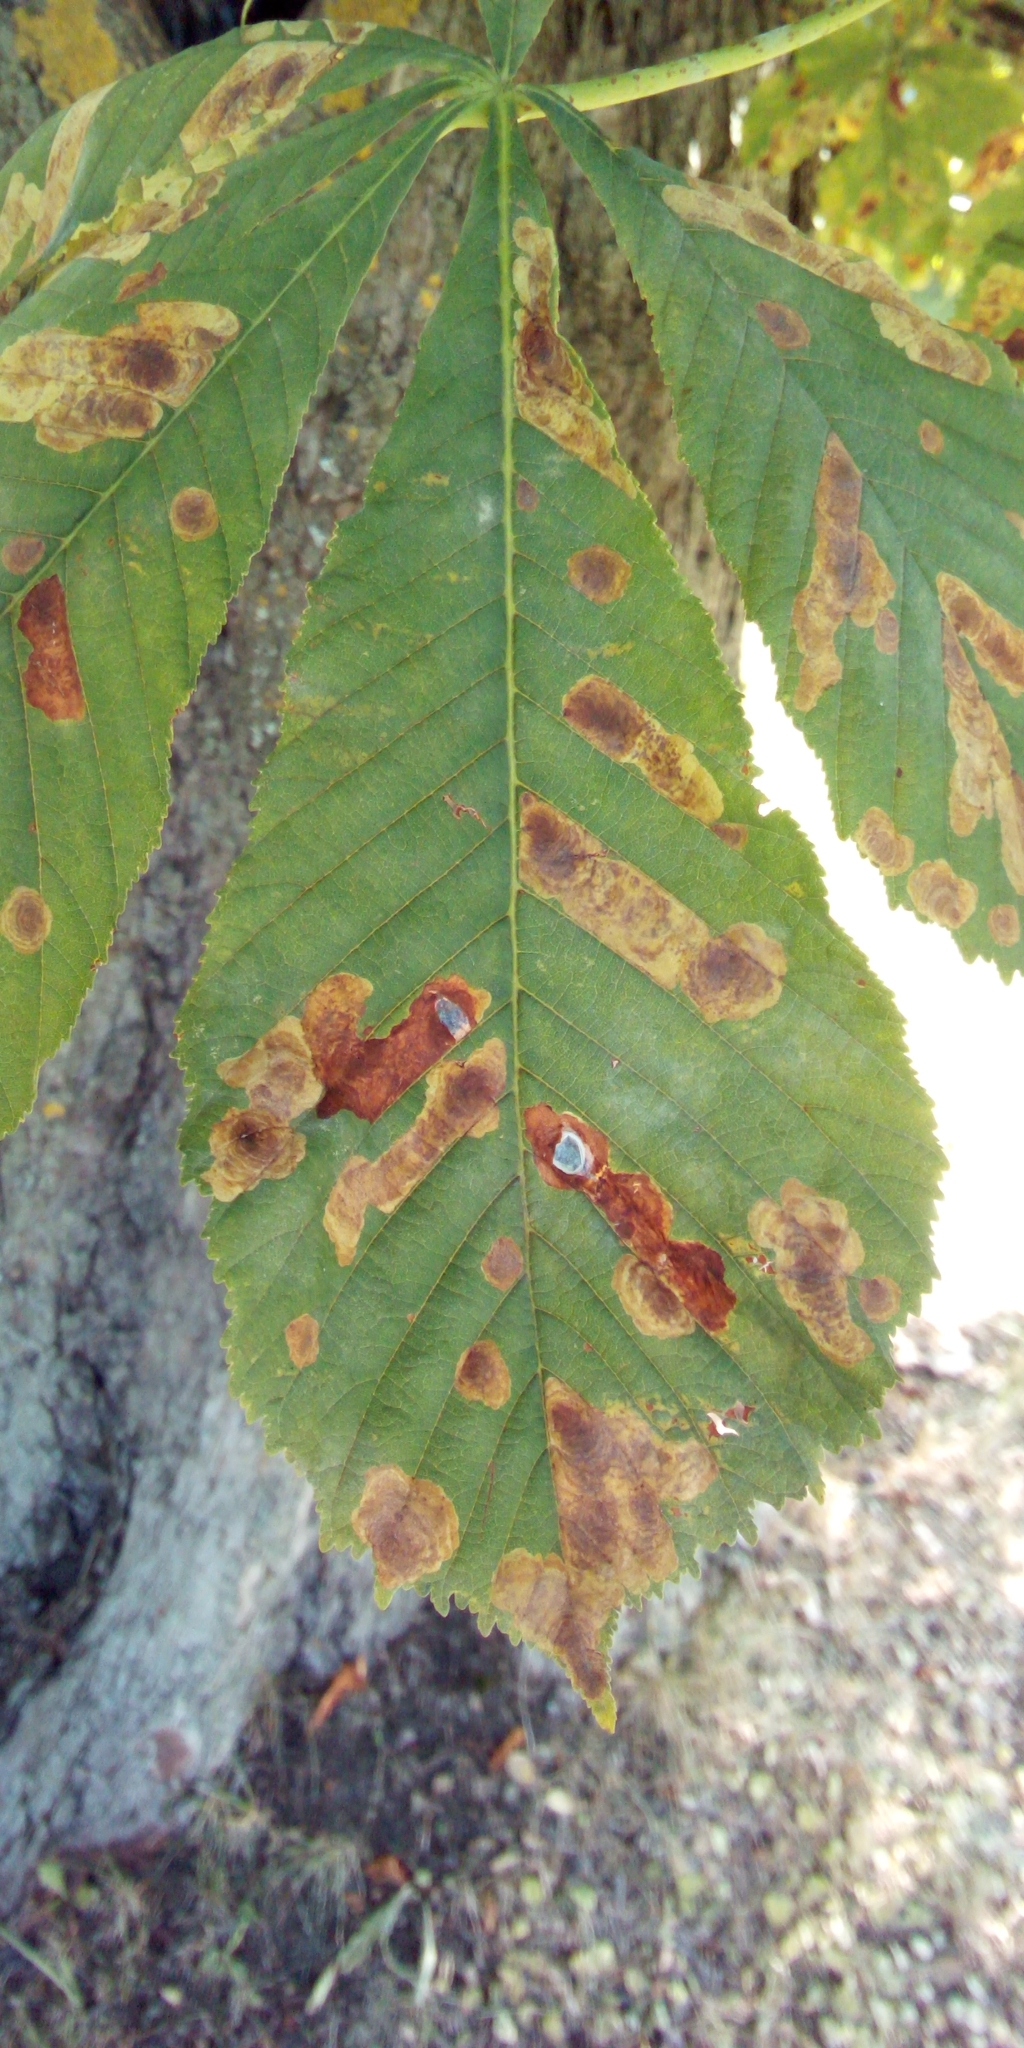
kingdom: Animalia
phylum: Arthropoda
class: Insecta
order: Lepidoptera
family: Gracillariidae
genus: Cameraria
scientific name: Cameraria ohridella
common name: Horse-chestnut leaf-miner
